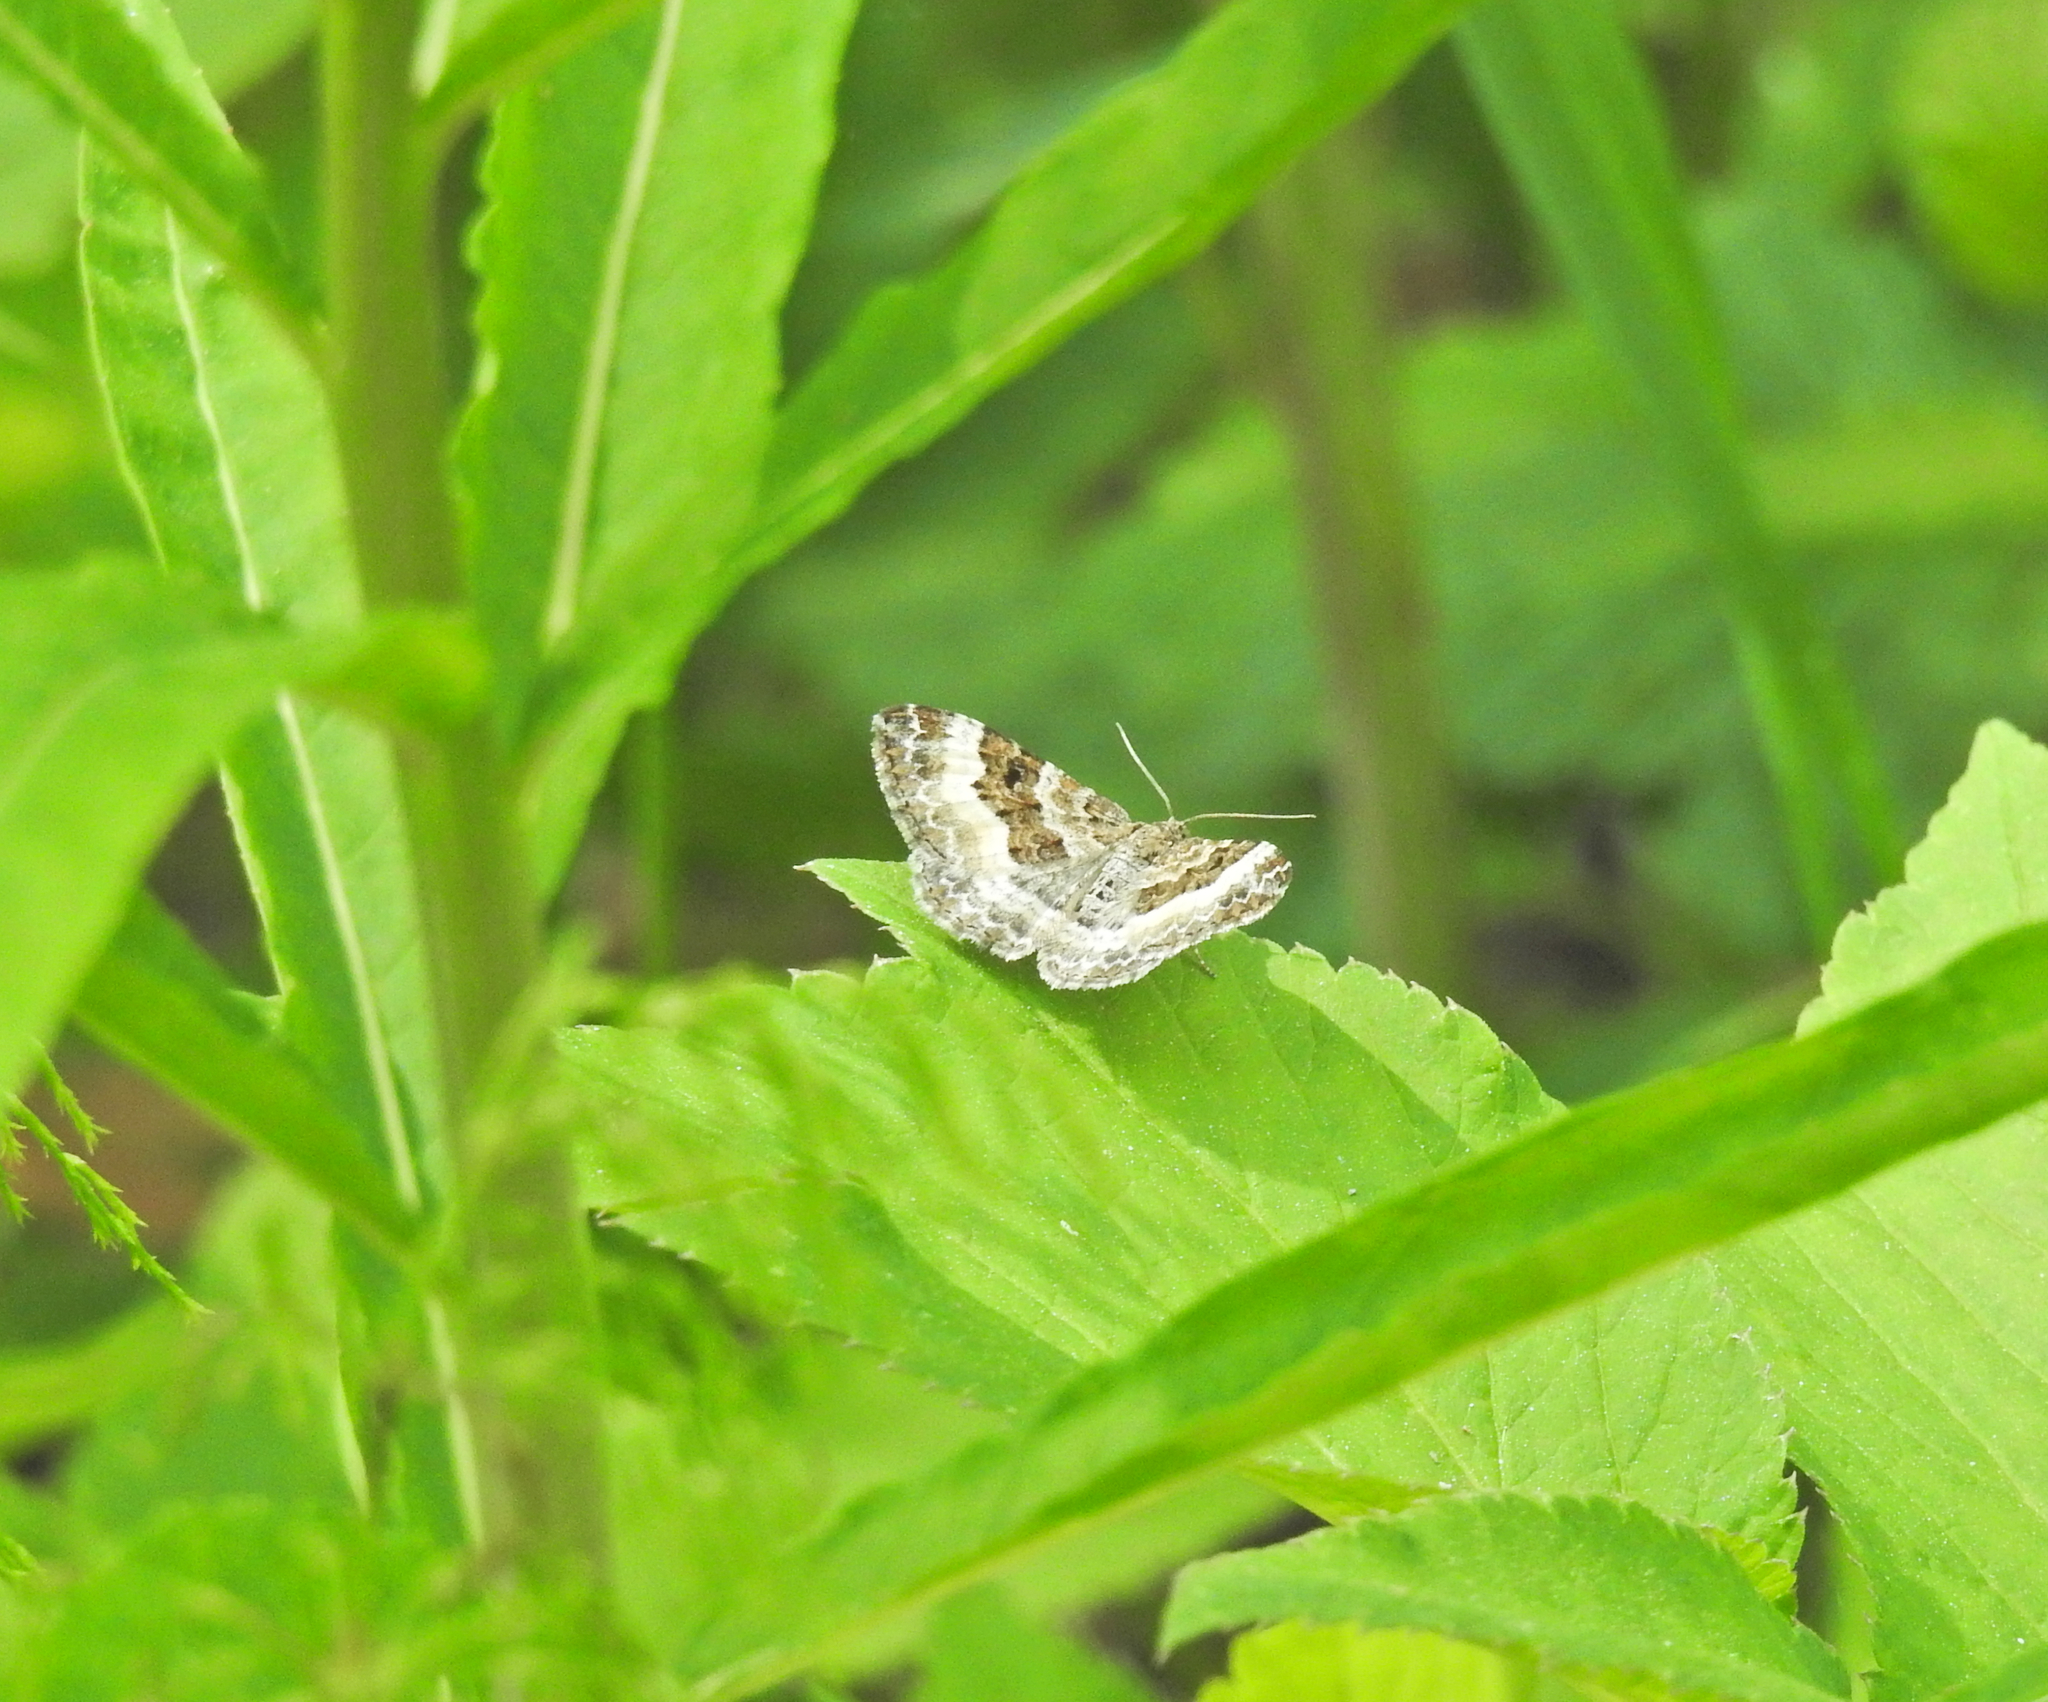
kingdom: Animalia
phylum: Arthropoda
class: Insecta
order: Lepidoptera
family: Geometridae
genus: Epirrhoe
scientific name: Epirrhoe alternata
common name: Common carpet
